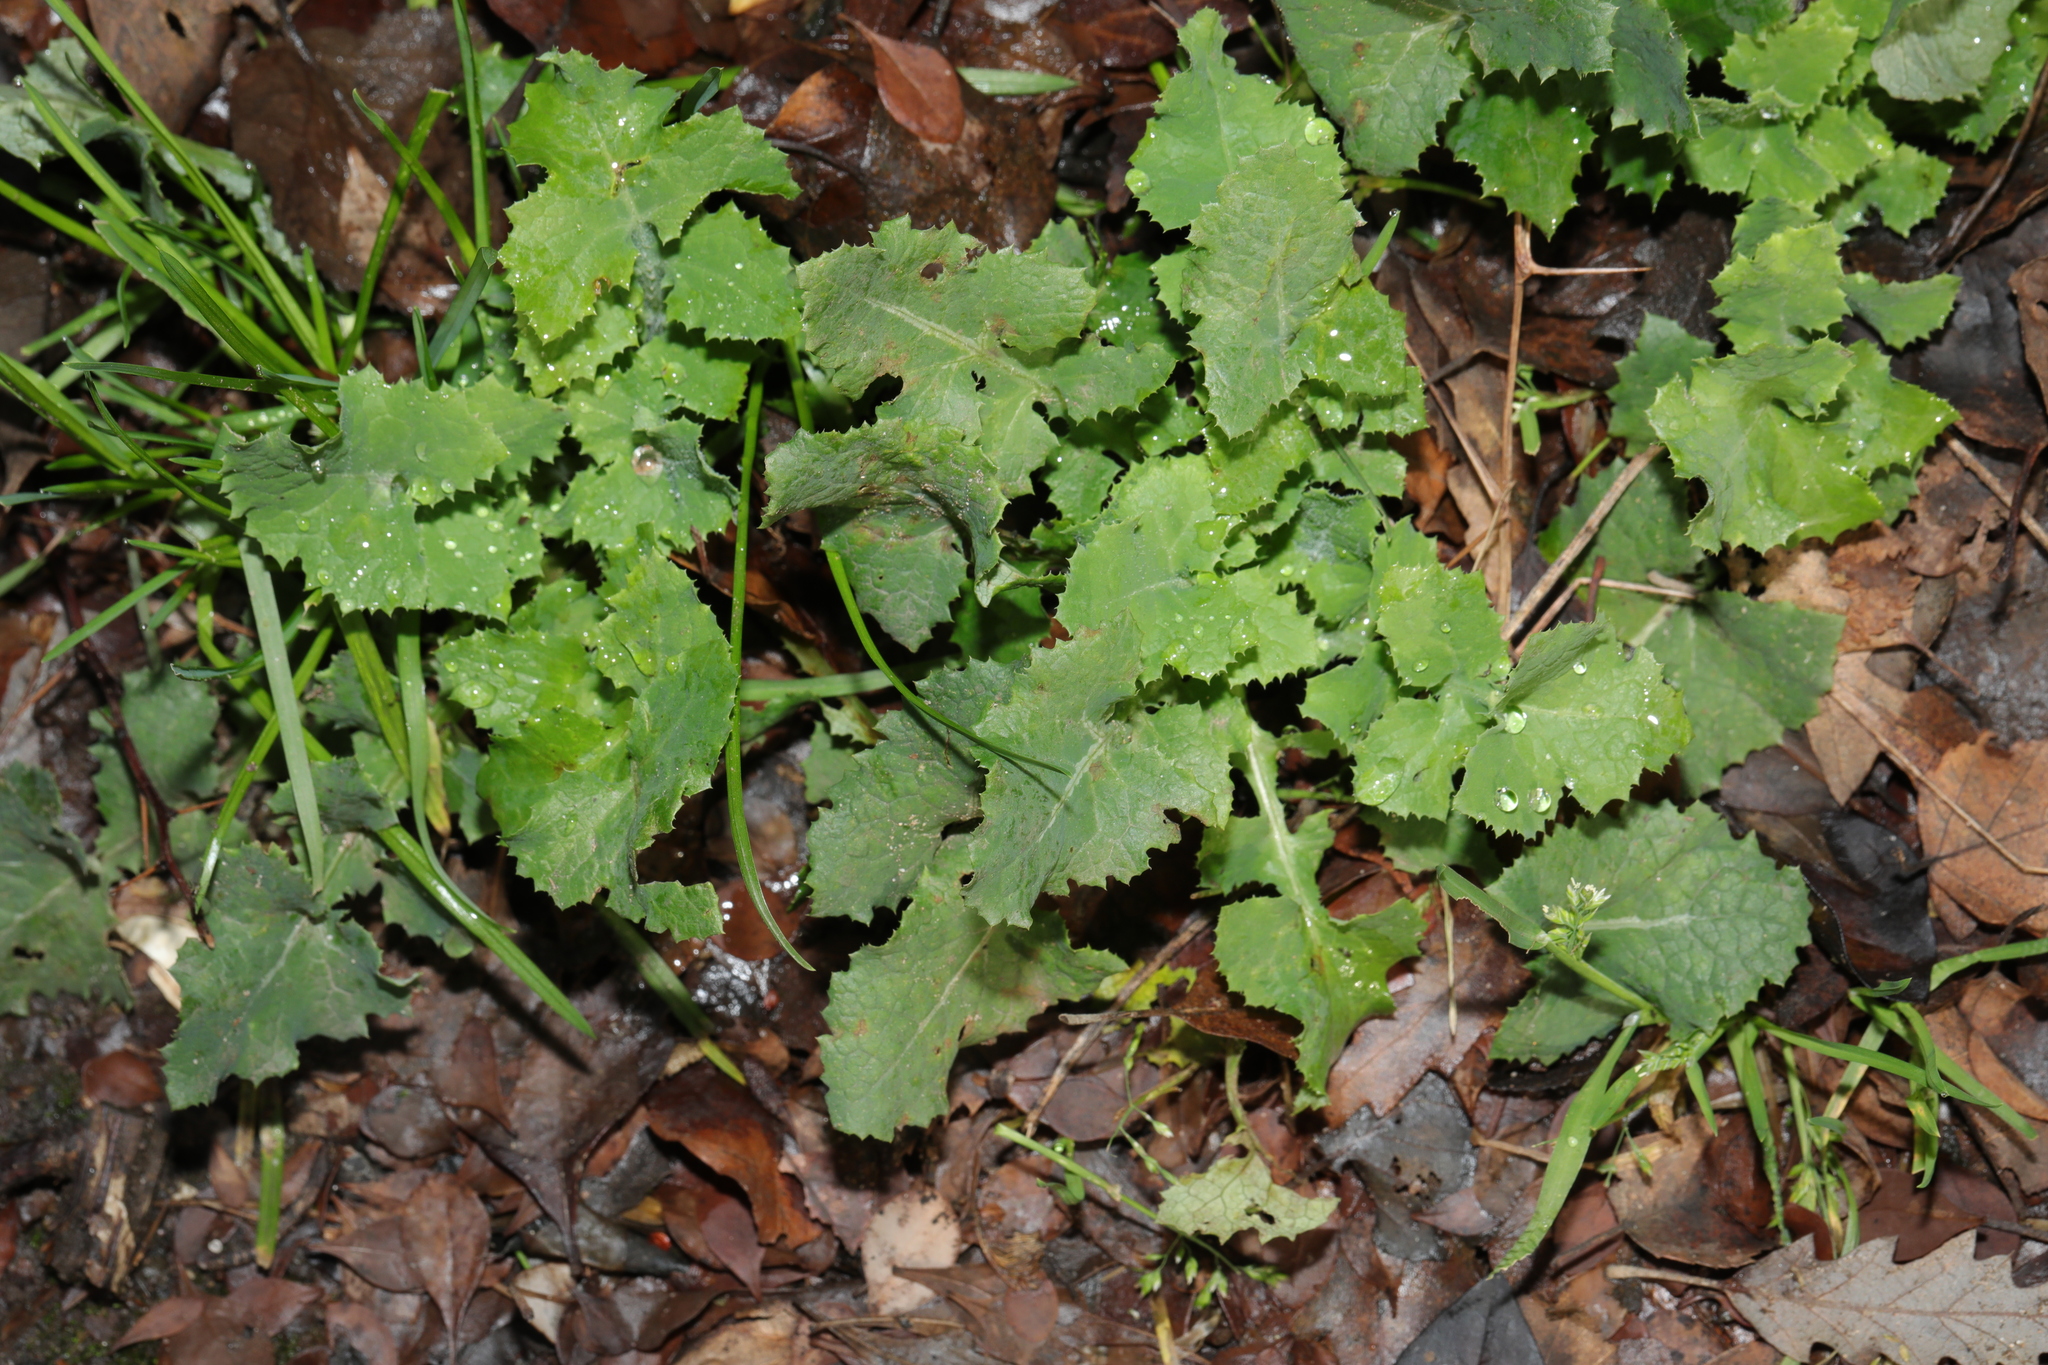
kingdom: Plantae
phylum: Tracheophyta
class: Magnoliopsida
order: Asterales
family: Asteraceae
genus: Sonchus
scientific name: Sonchus oleraceus
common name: Common sowthistle
